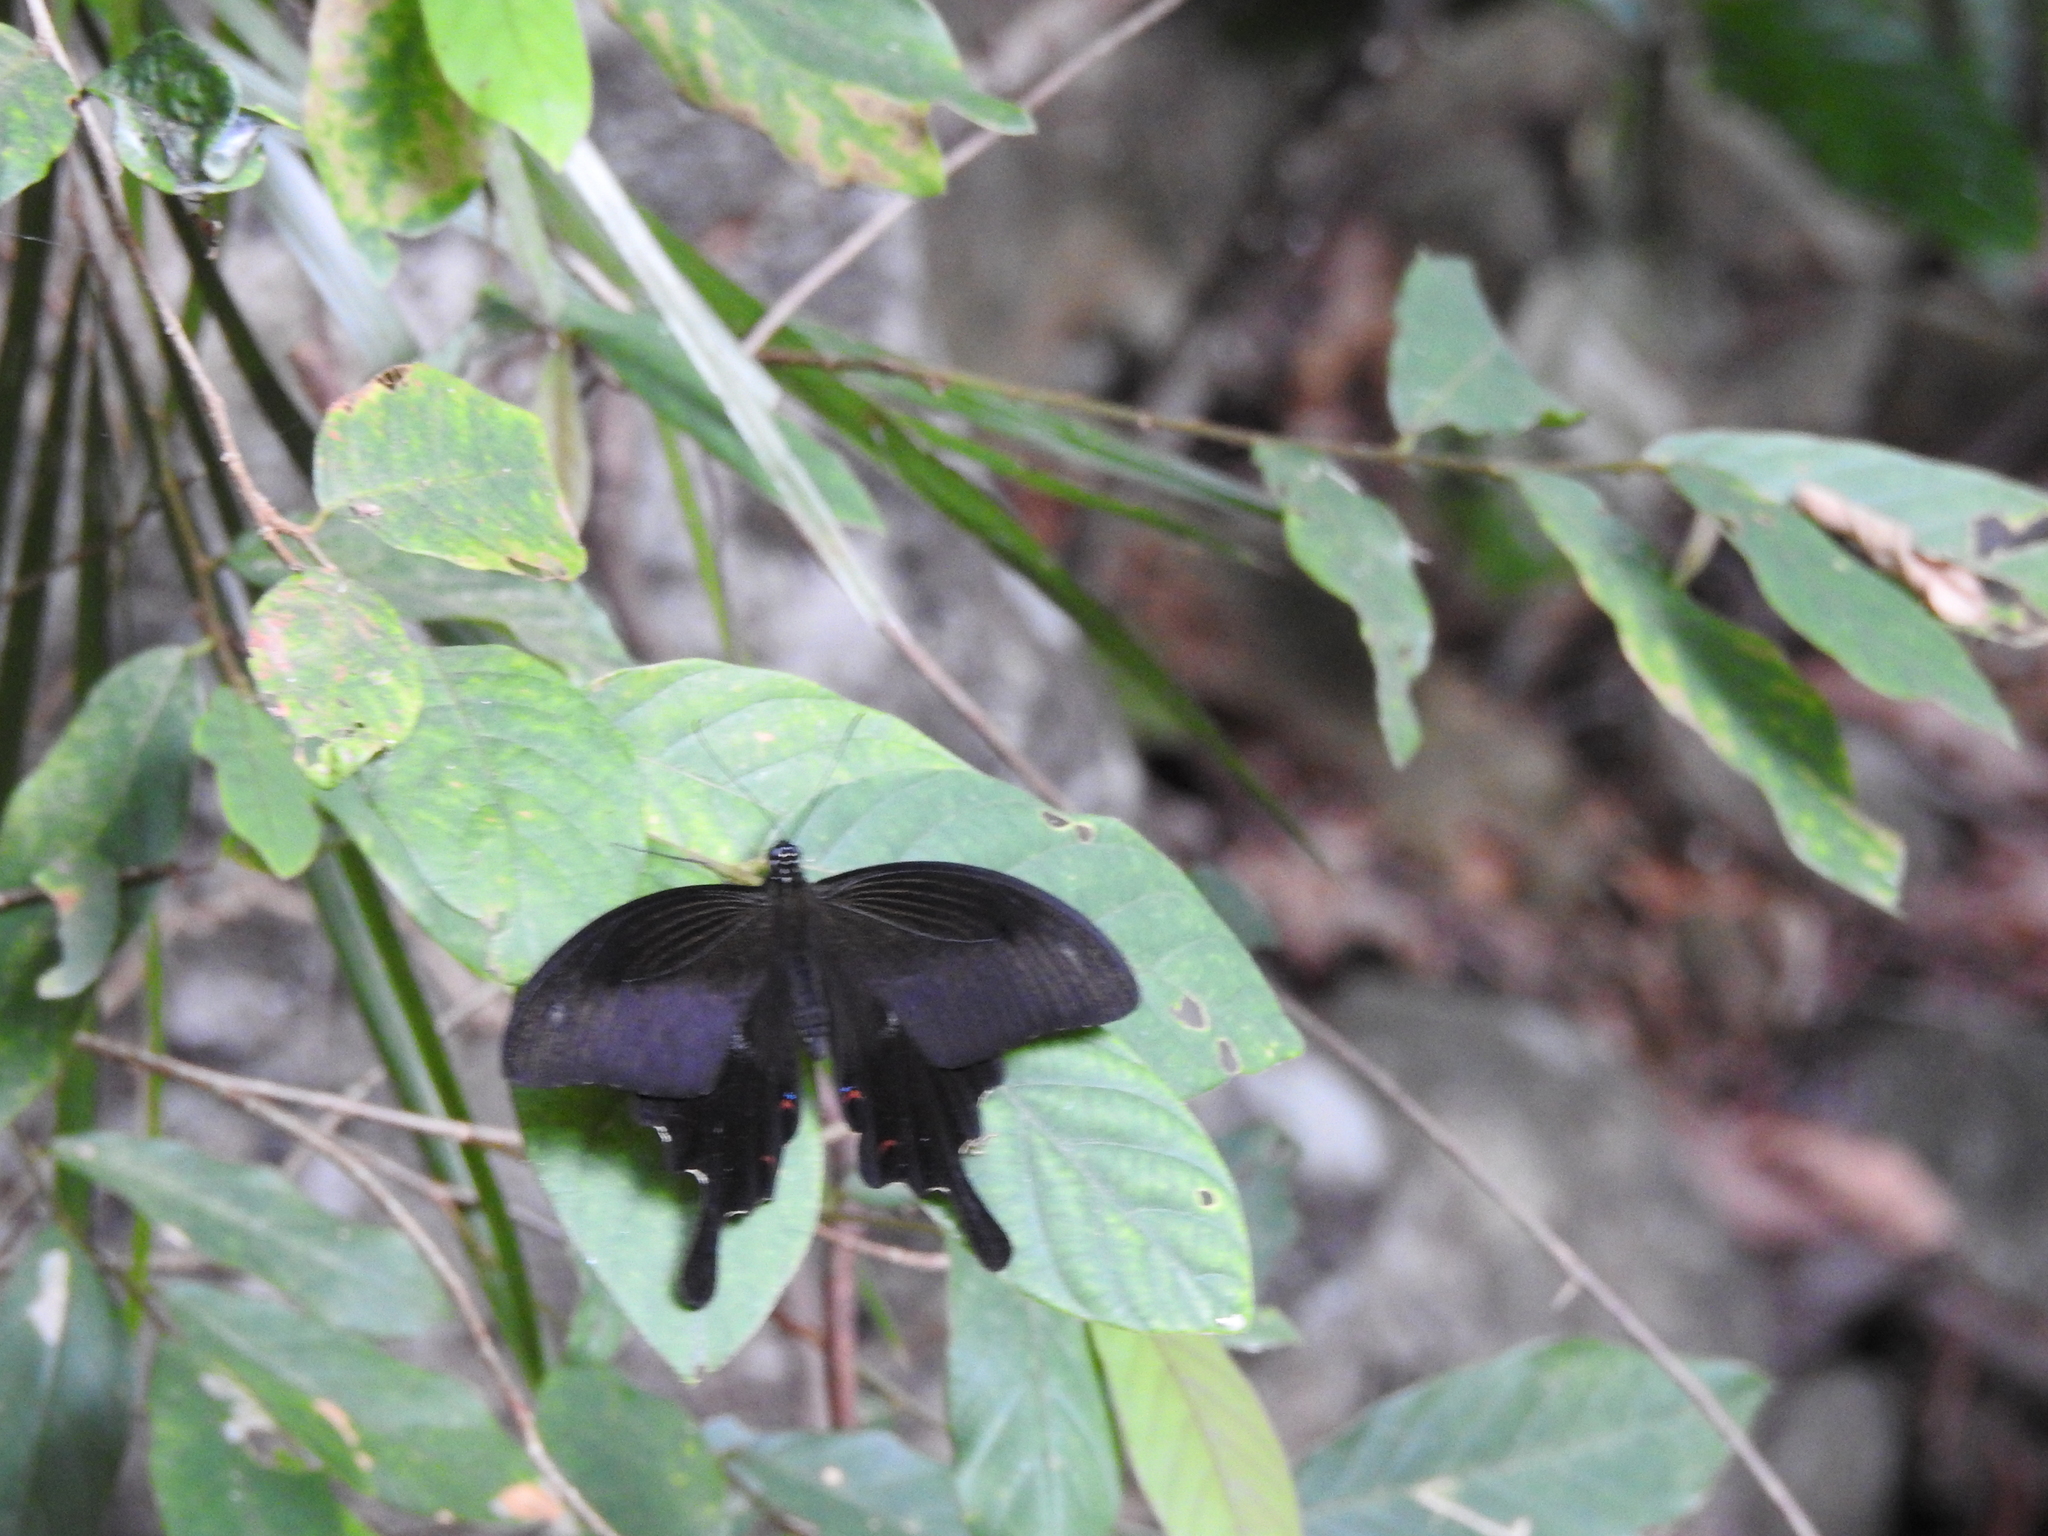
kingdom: Animalia
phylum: Arthropoda
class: Insecta
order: Lepidoptera
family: Papilionidae
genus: Papilio
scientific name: Papilio helenus
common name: Red helen
